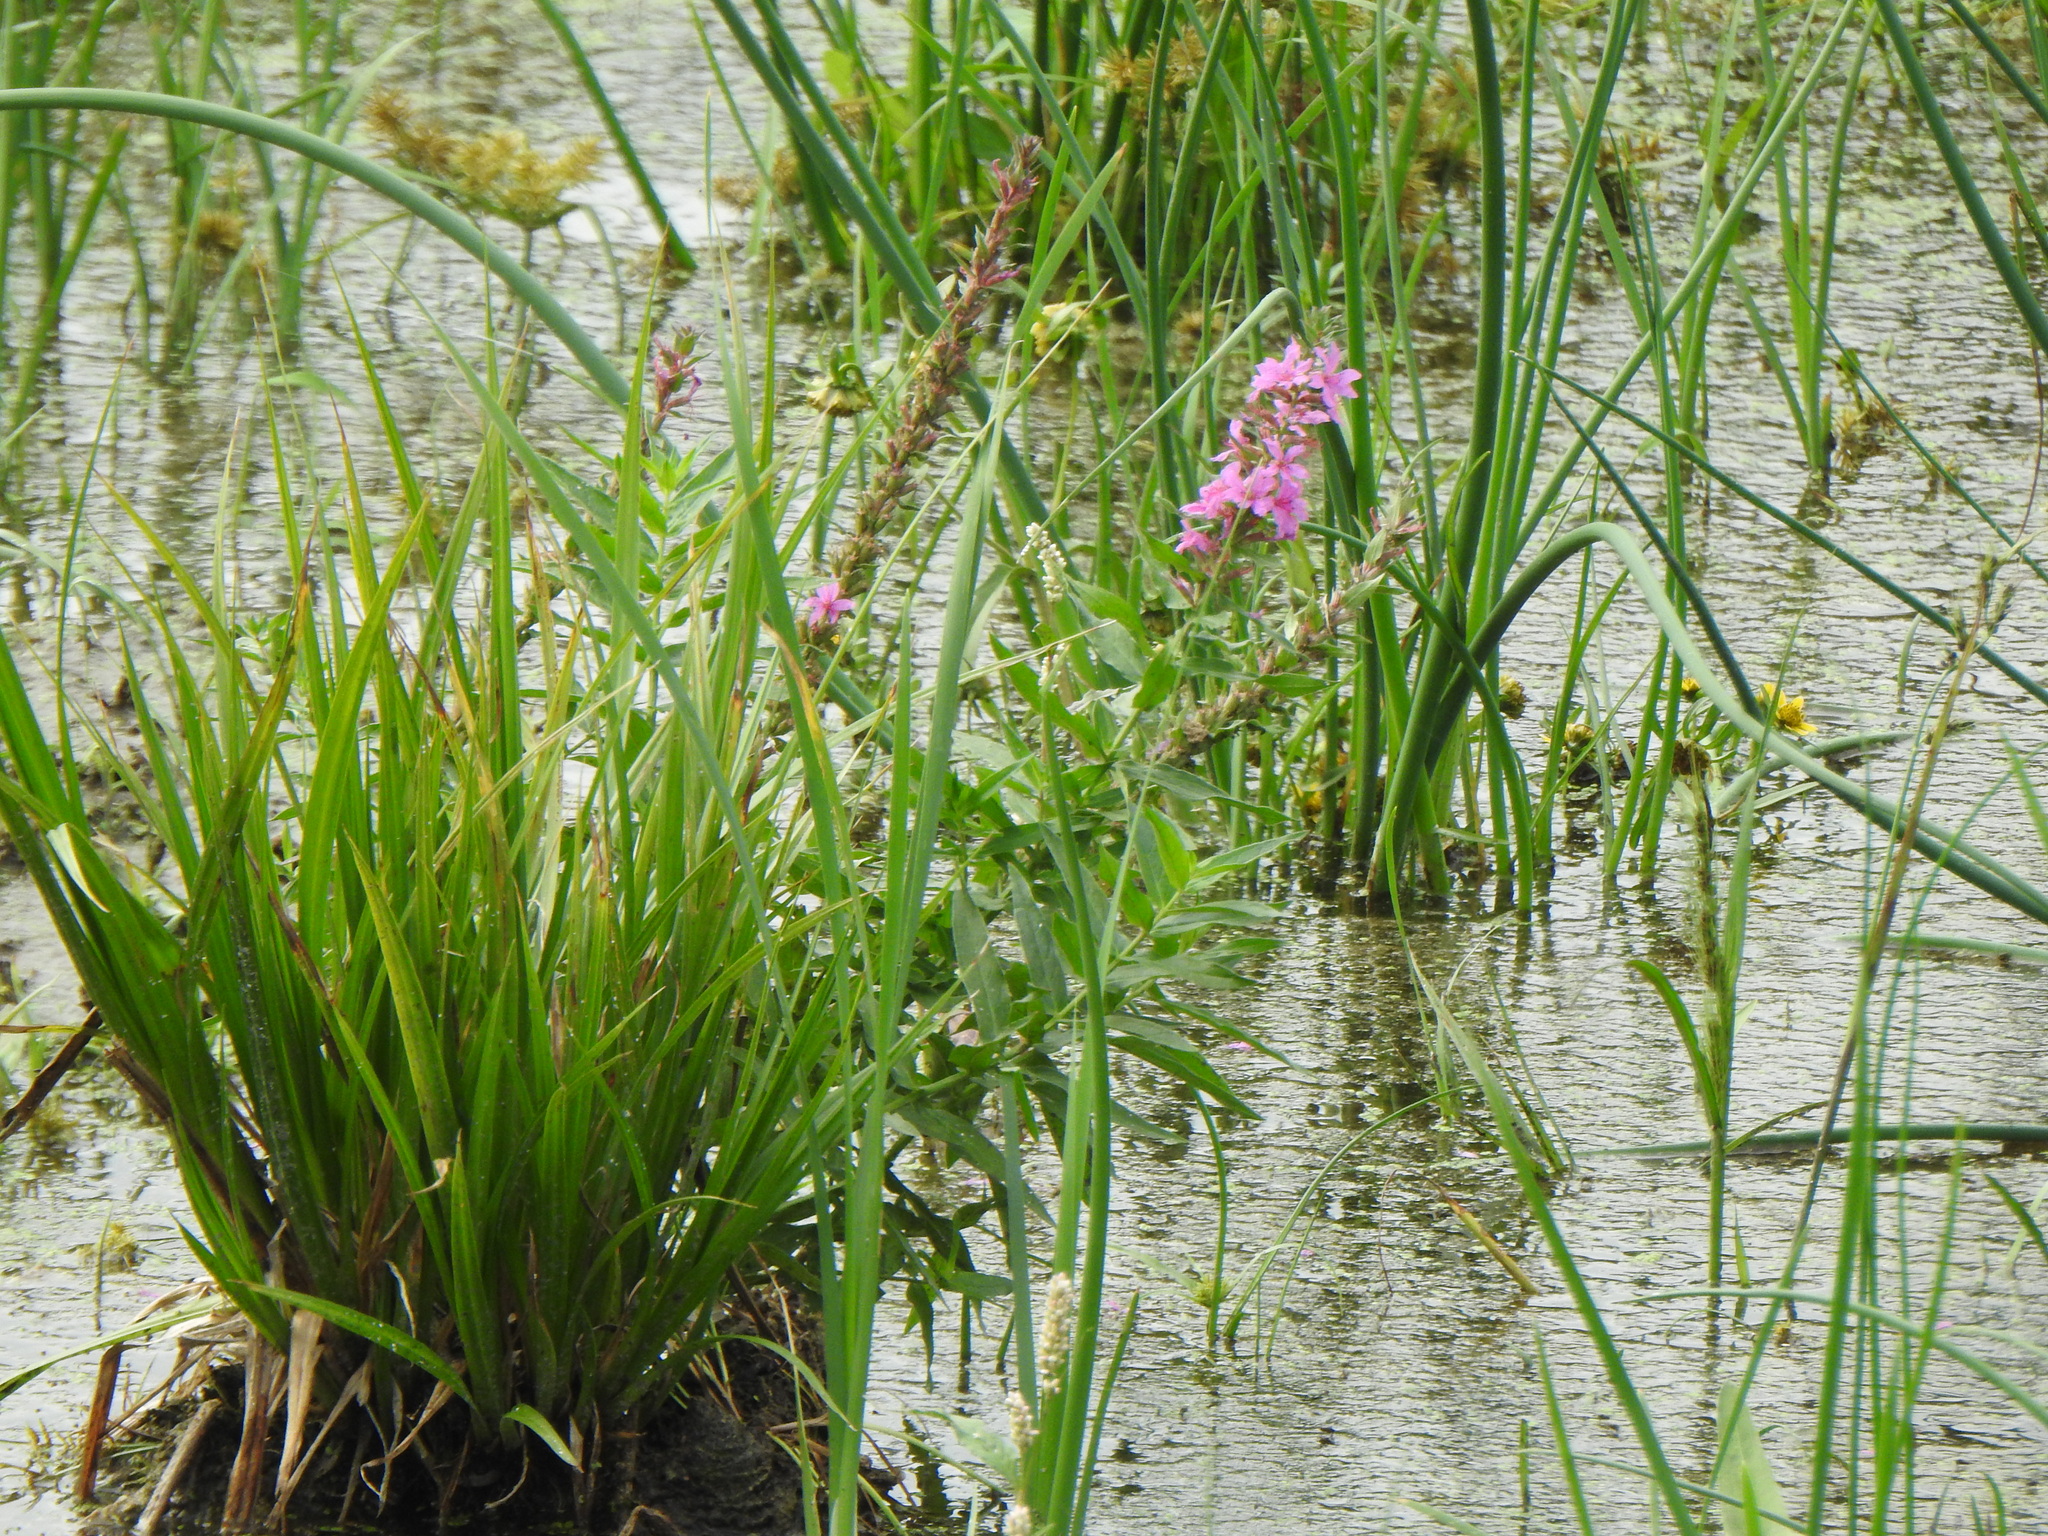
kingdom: Plantae
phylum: Tracheophyta
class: Magnoliopsida
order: Myrtales
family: Lythraceae
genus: Lythrum
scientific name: Lythrum salicaria
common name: Purple loosestrife
